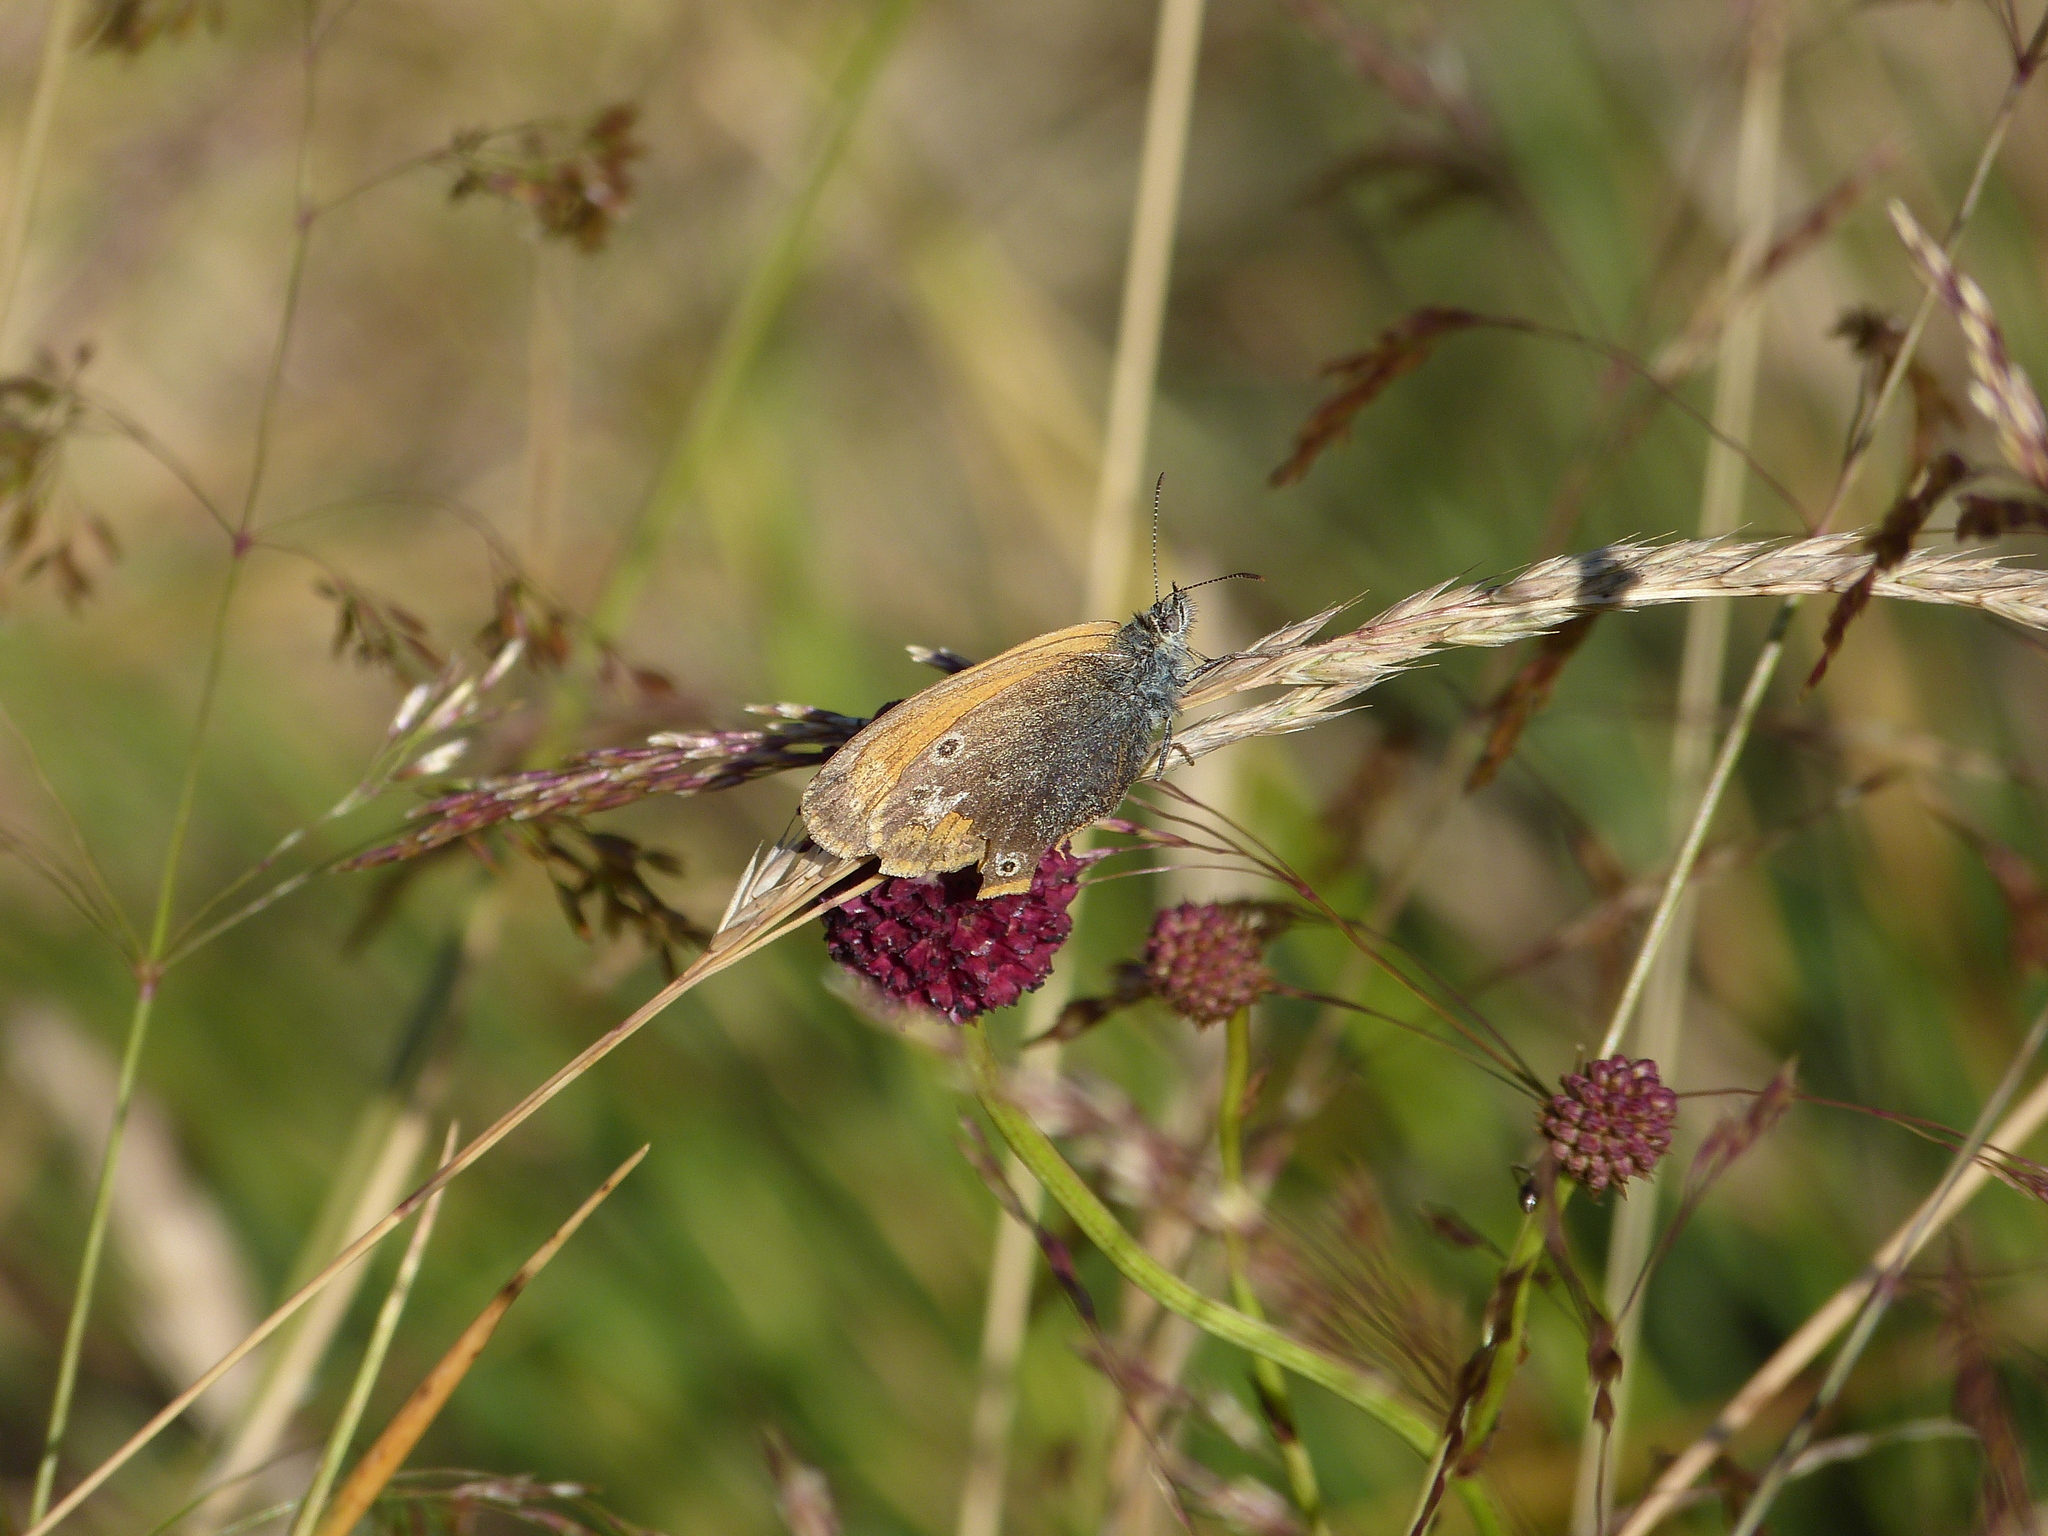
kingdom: Animalia
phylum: Arthropoda
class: Insecta
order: Lepidoptera
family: Nymphalidae
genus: Coenonympha
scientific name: Coenonympha iphis
